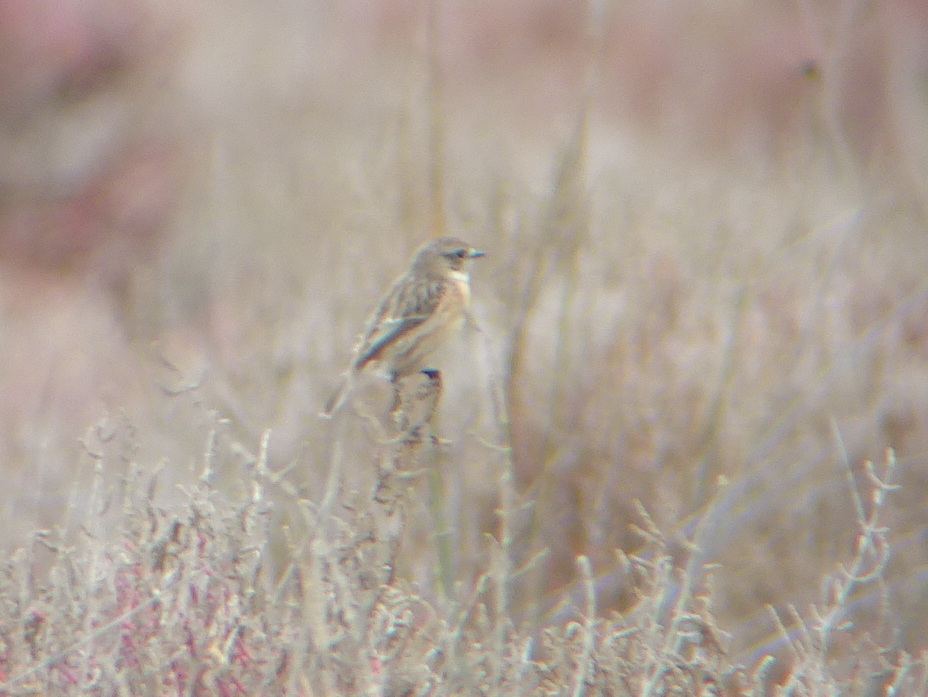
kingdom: Animalia
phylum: Chordata
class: Aves
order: Passeriformes
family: Muscicapidae
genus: Saxicola
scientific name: Saxicola rubicola
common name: European stonechat
